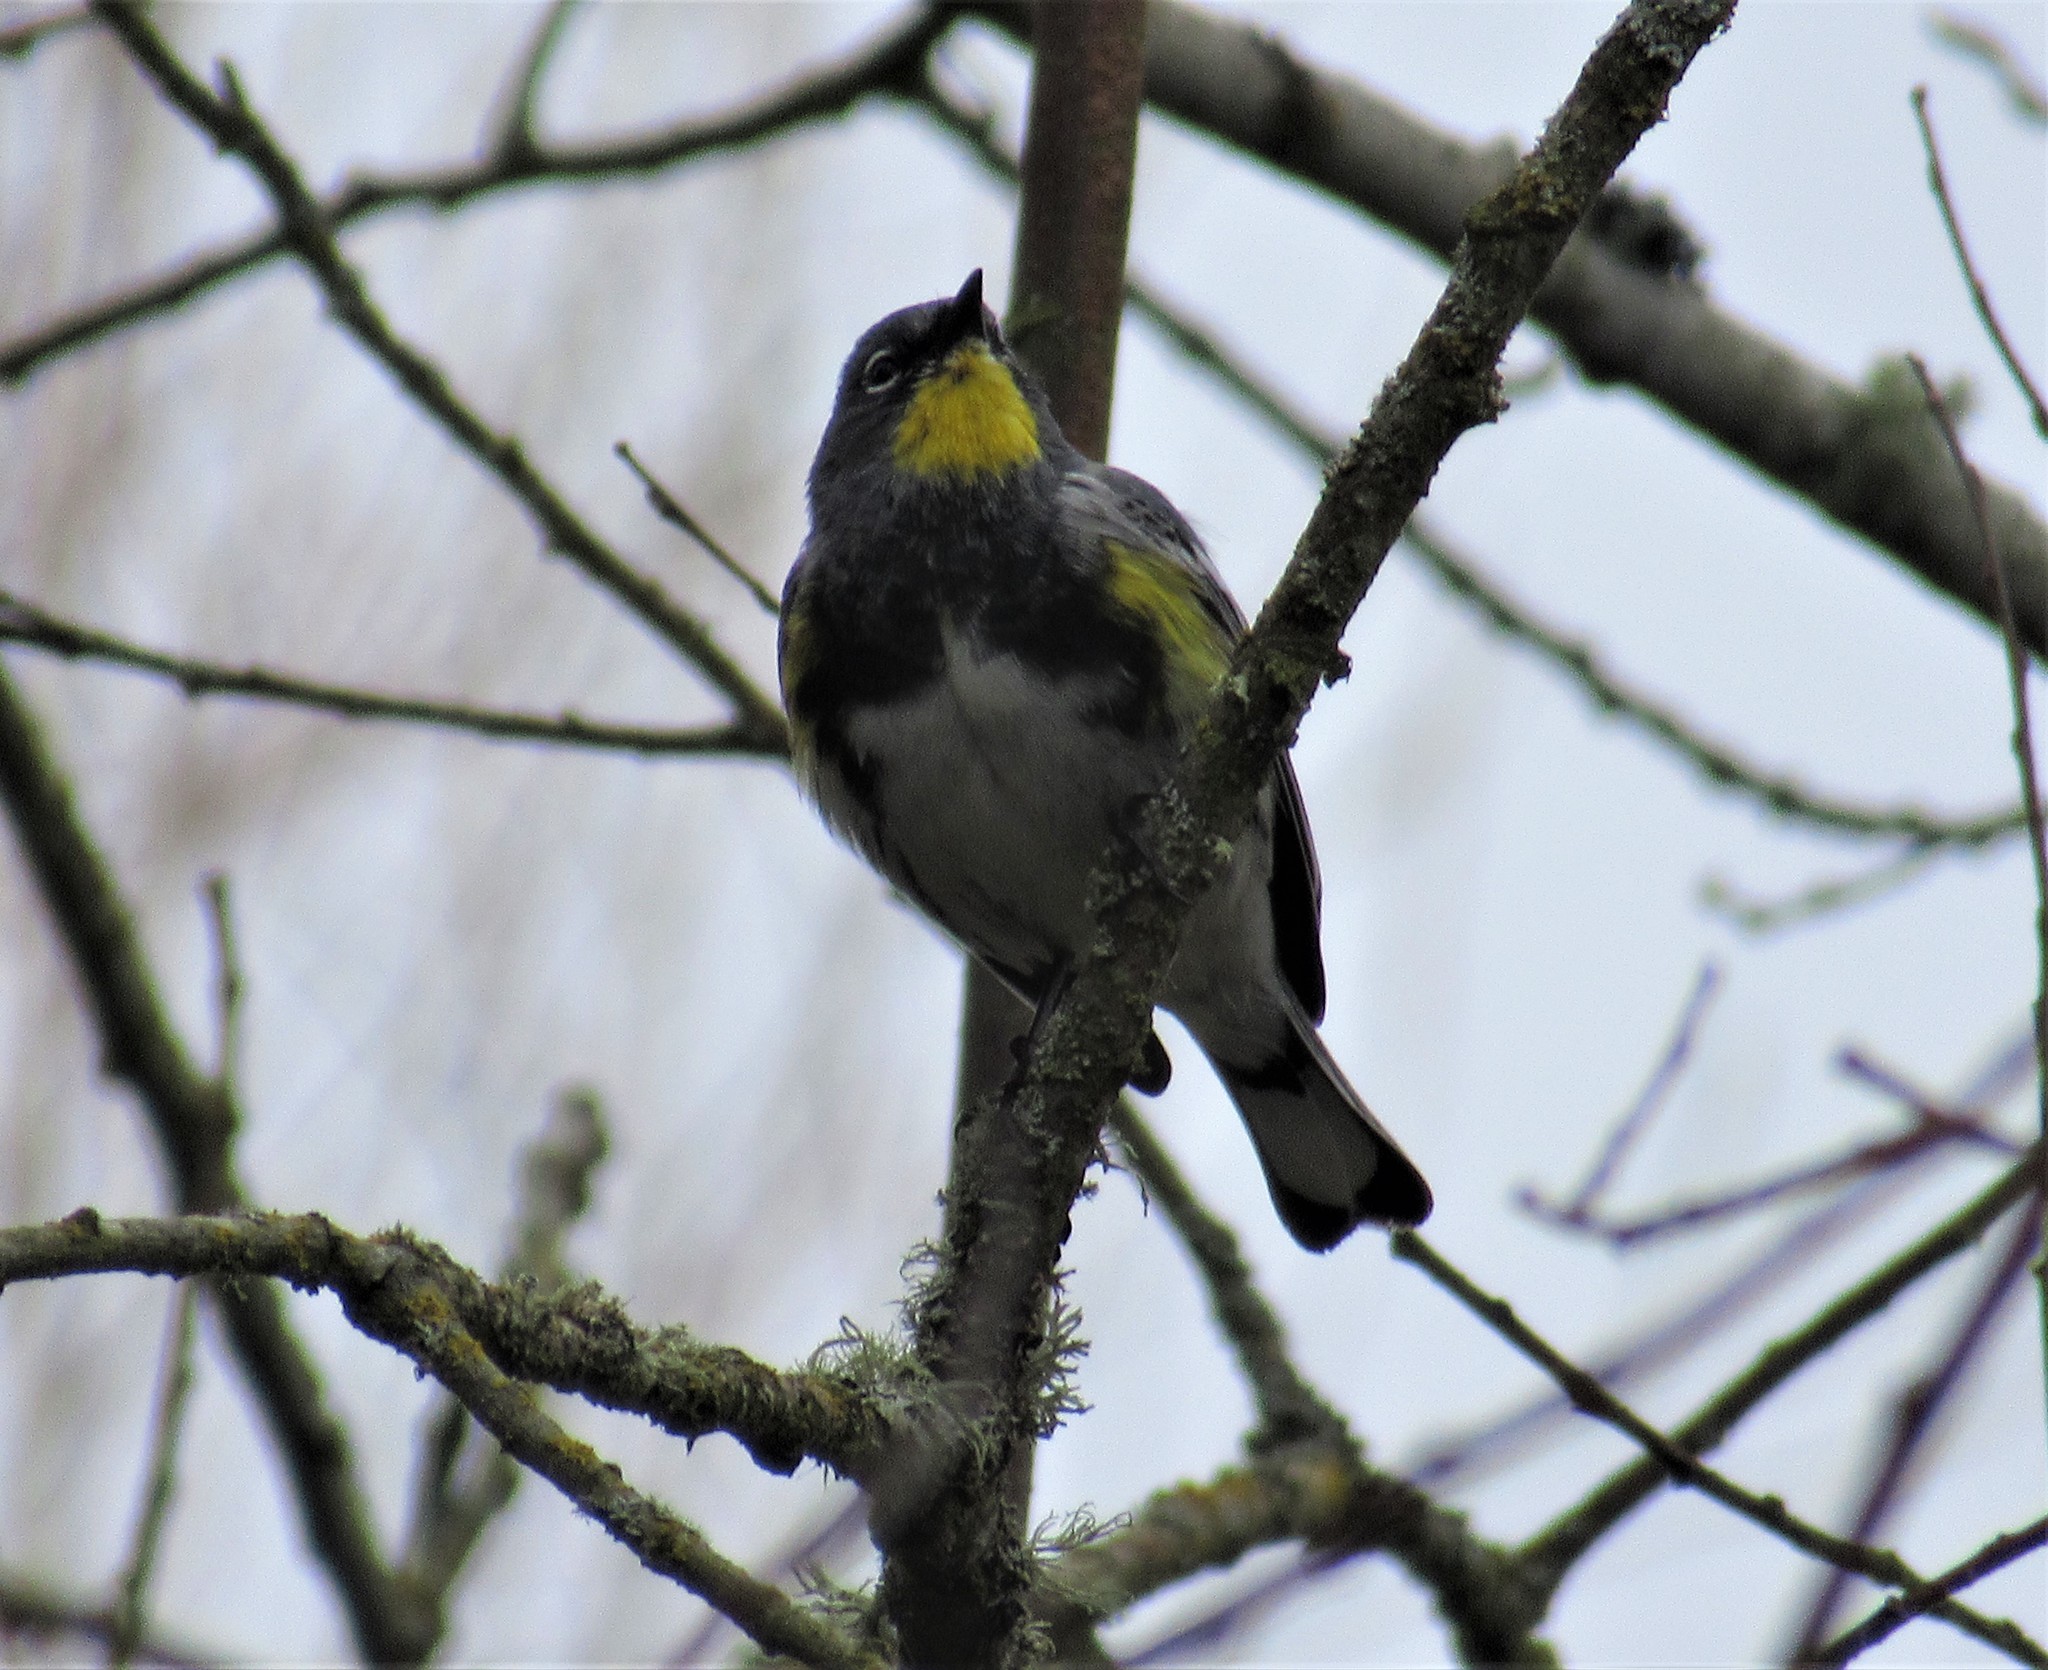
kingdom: Animalia
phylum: Chordata
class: Aves
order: Passeriformes
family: Parulidae
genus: Setophaga
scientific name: Setophaga auduboni
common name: Audubon's warbler
